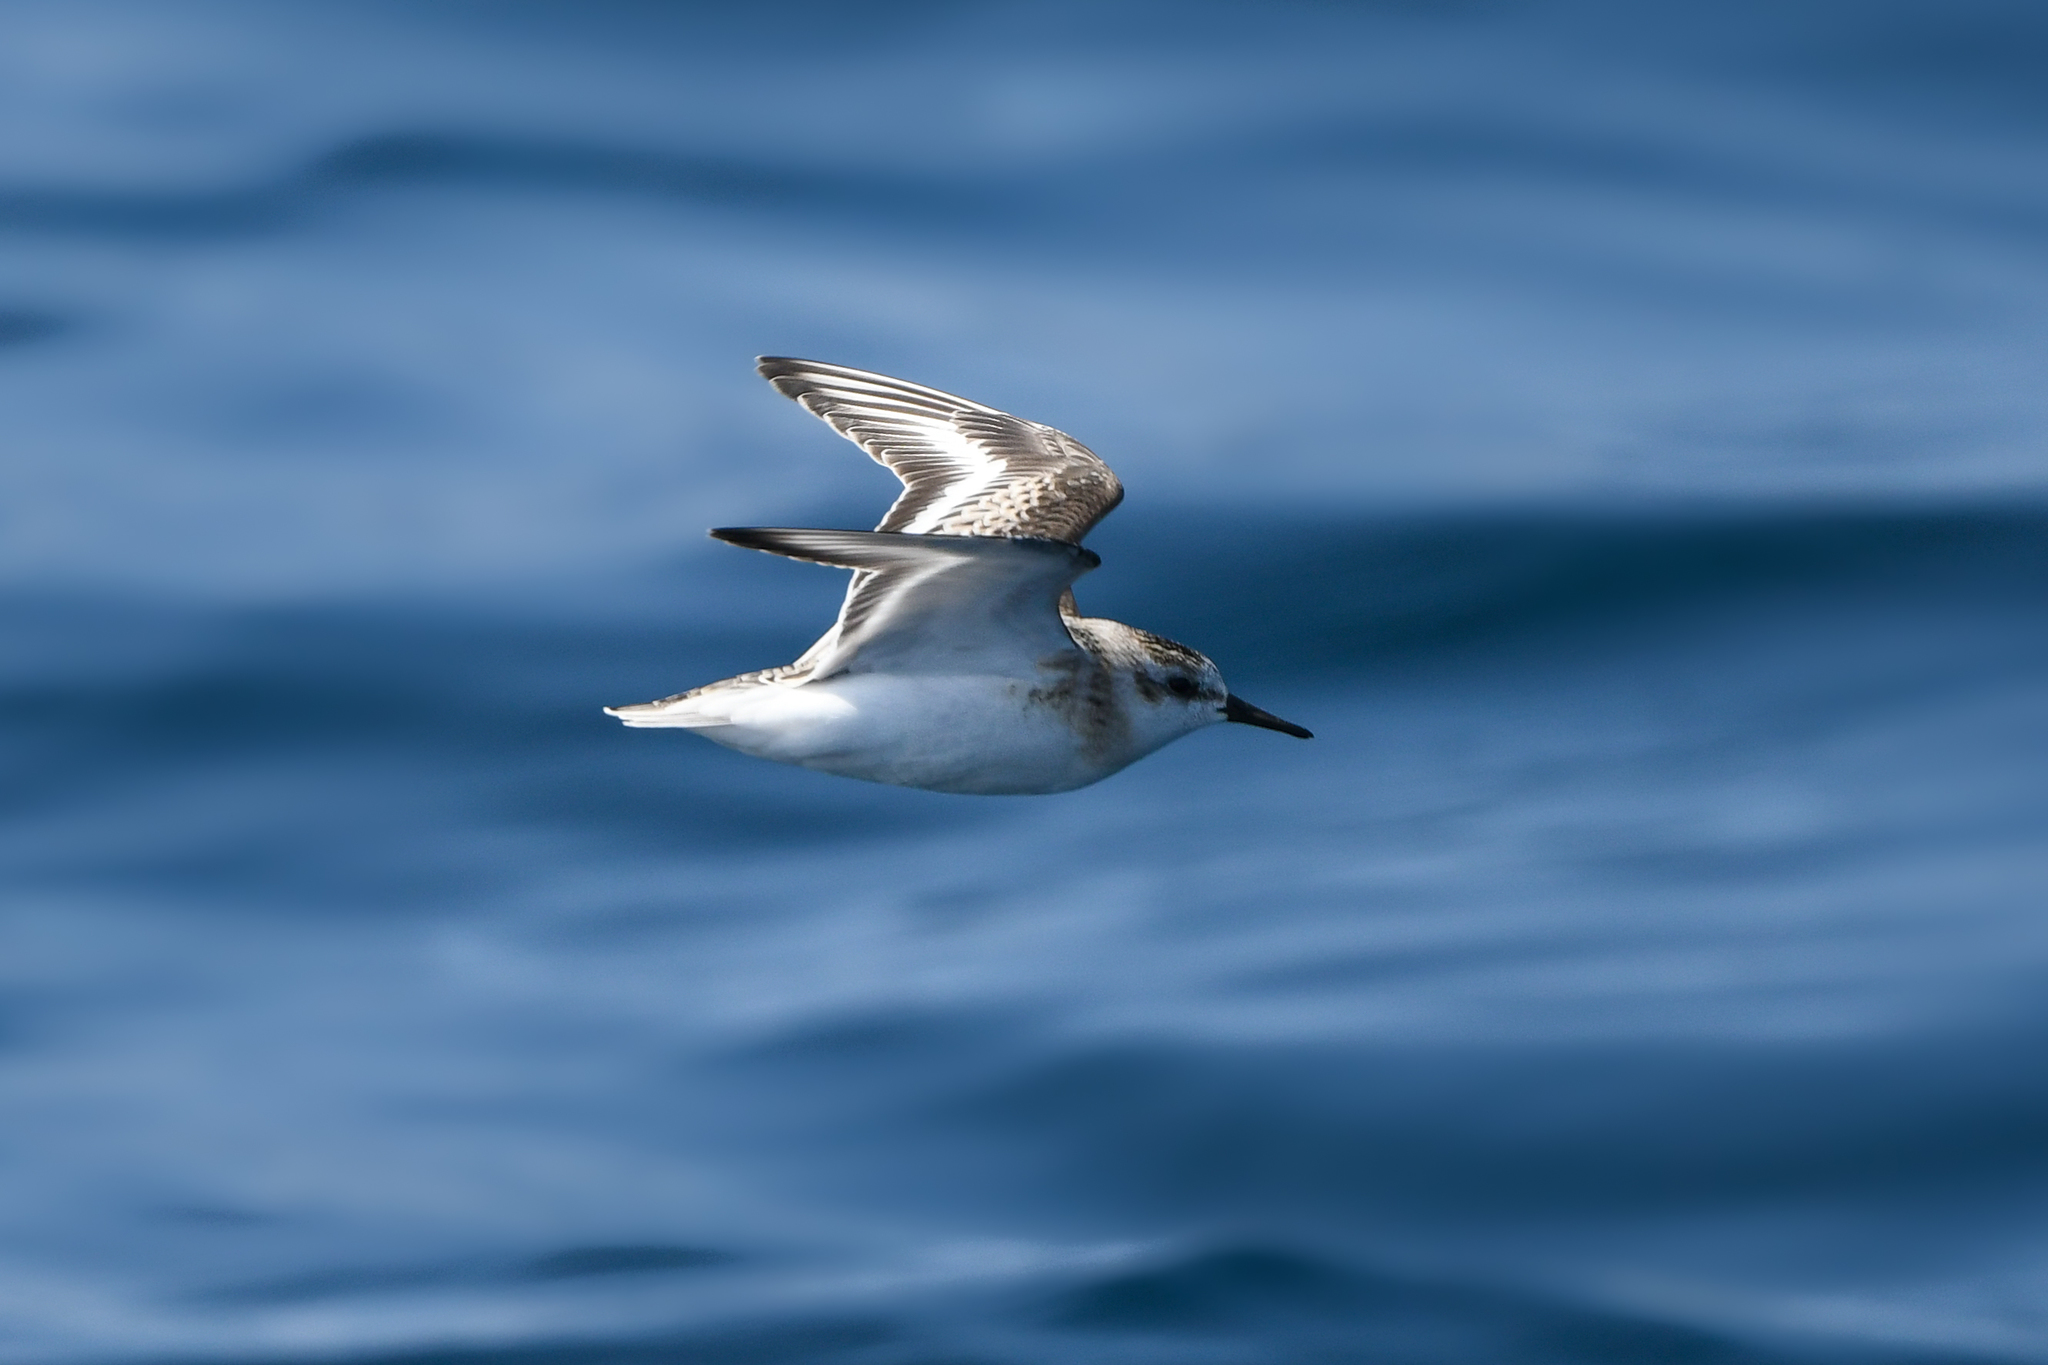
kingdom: Animalia
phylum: Chordata
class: Aves
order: Charadriiformes
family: Scolopacidae
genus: Calidris
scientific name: Calidris alba
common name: Sanderling
